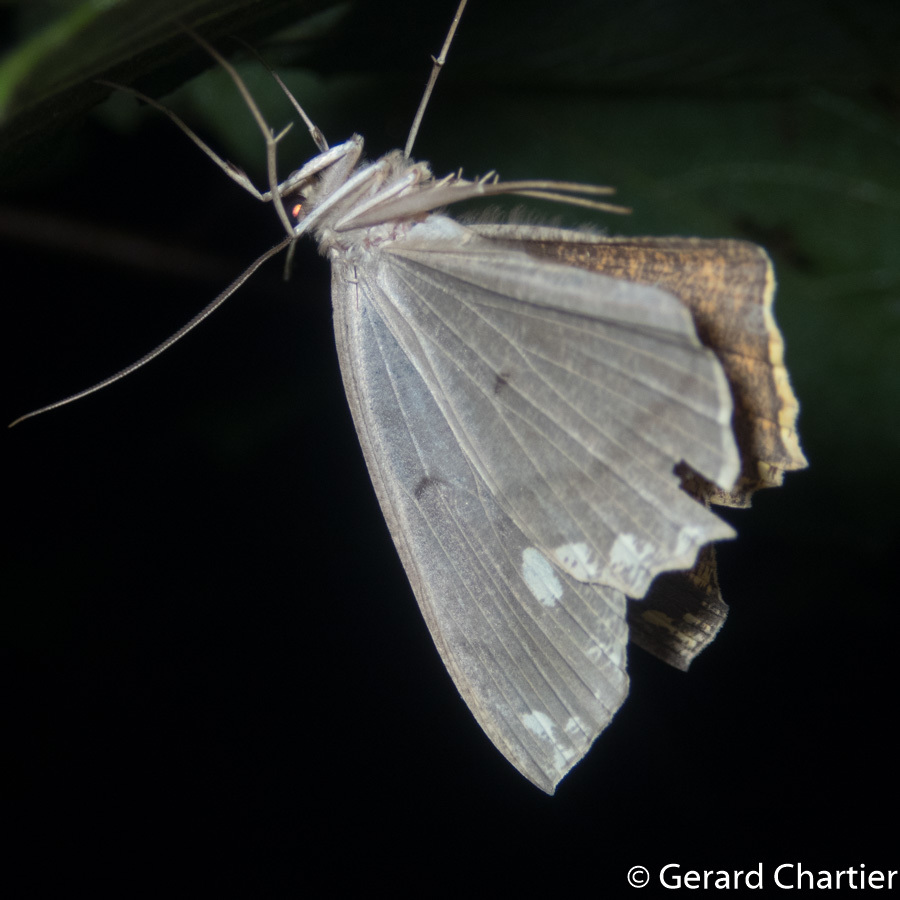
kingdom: Animalia
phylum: Arthropoda
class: Insecta
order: Lepidoptera
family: Geometridae
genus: Pareumelea
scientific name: Pareumelea eugeniata
